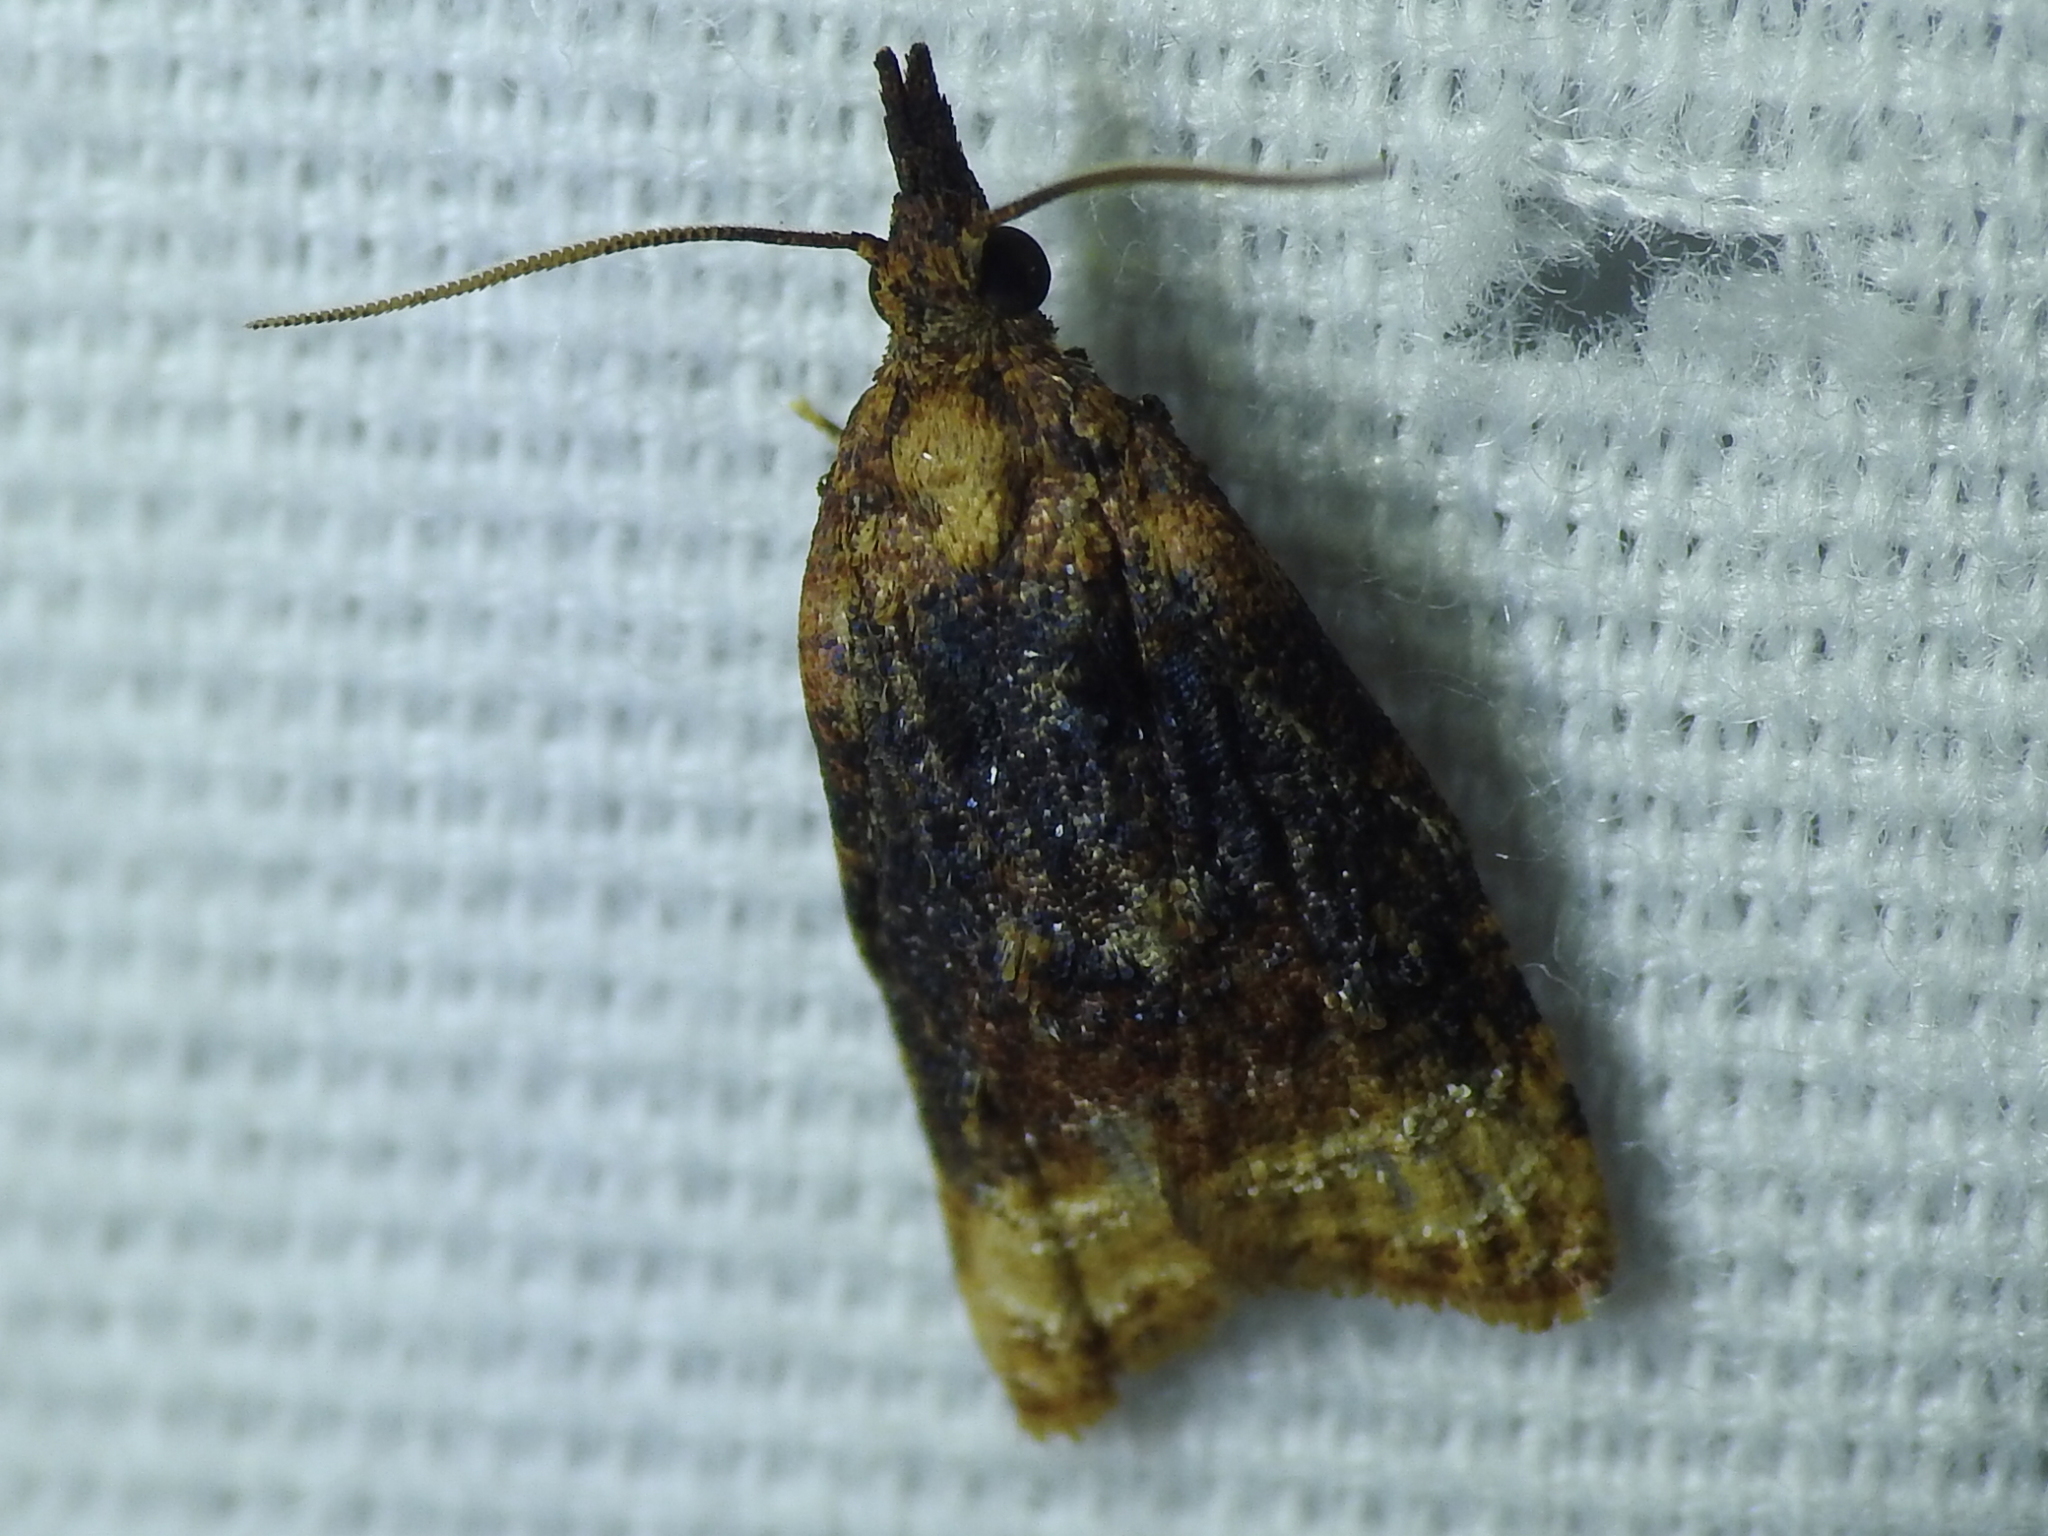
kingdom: Animalia
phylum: Arthropoda
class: Insecta
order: Lepidoptera
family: Tortricidae
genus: Platynota
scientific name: Platynota flavedana
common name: Black-shaded platynota moth
